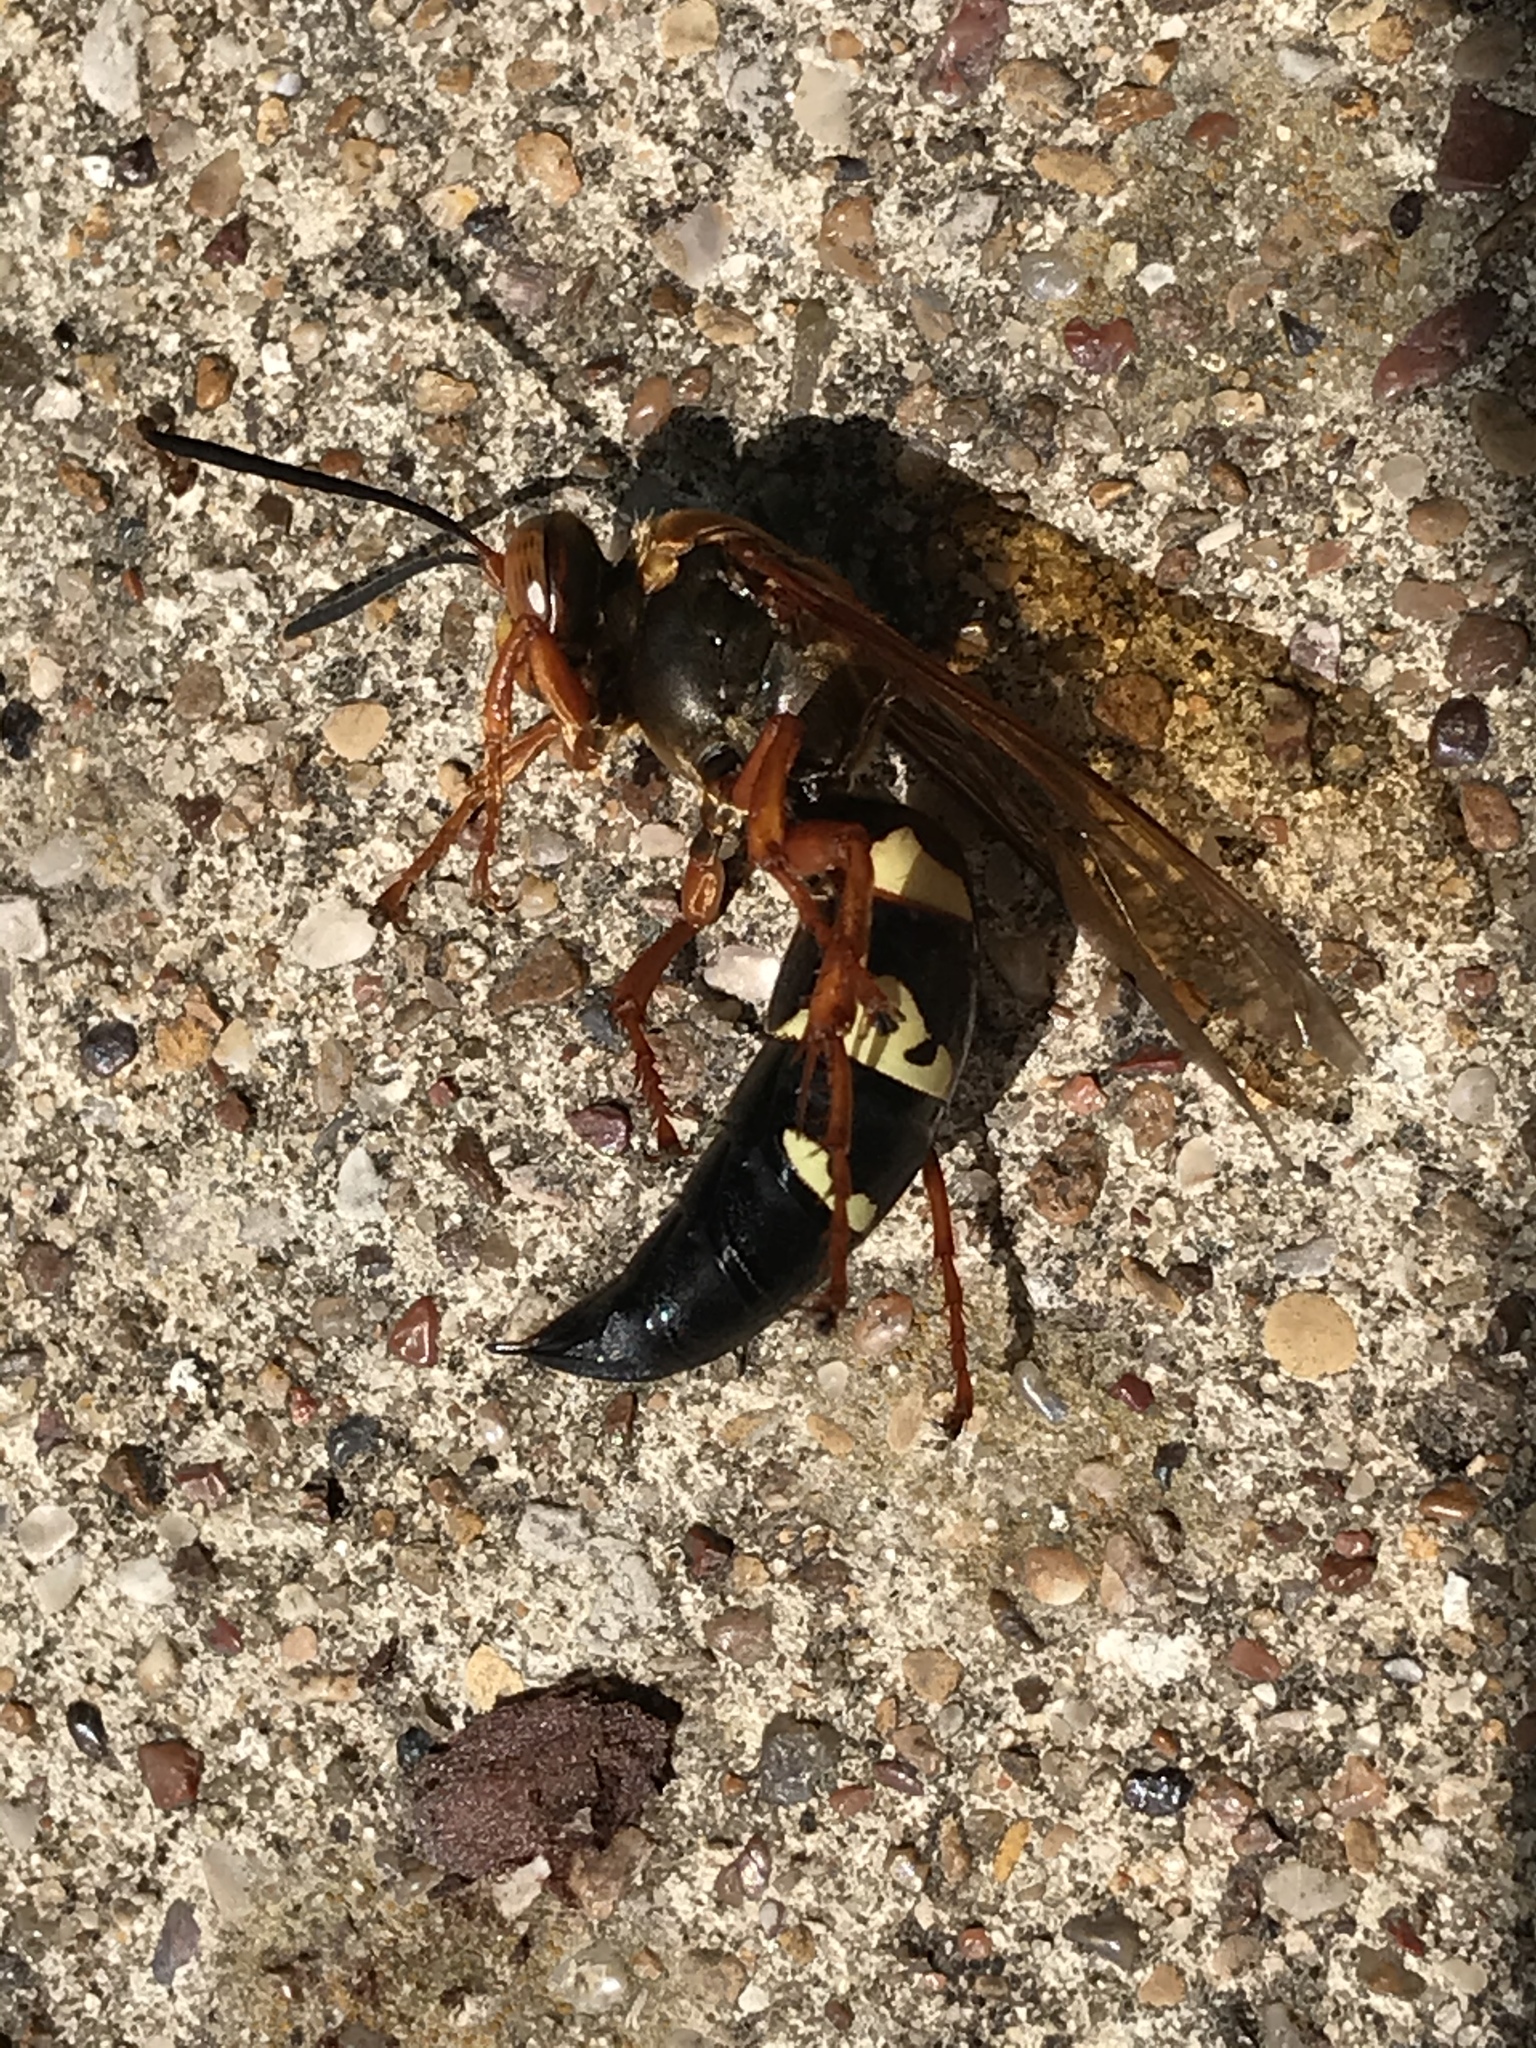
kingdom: Animalia
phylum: Arthropoda
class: Insecta
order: Hymenoptera
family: Crabronidae
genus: Sphecius
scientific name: Sphecius speciosus
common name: Cicada killer
